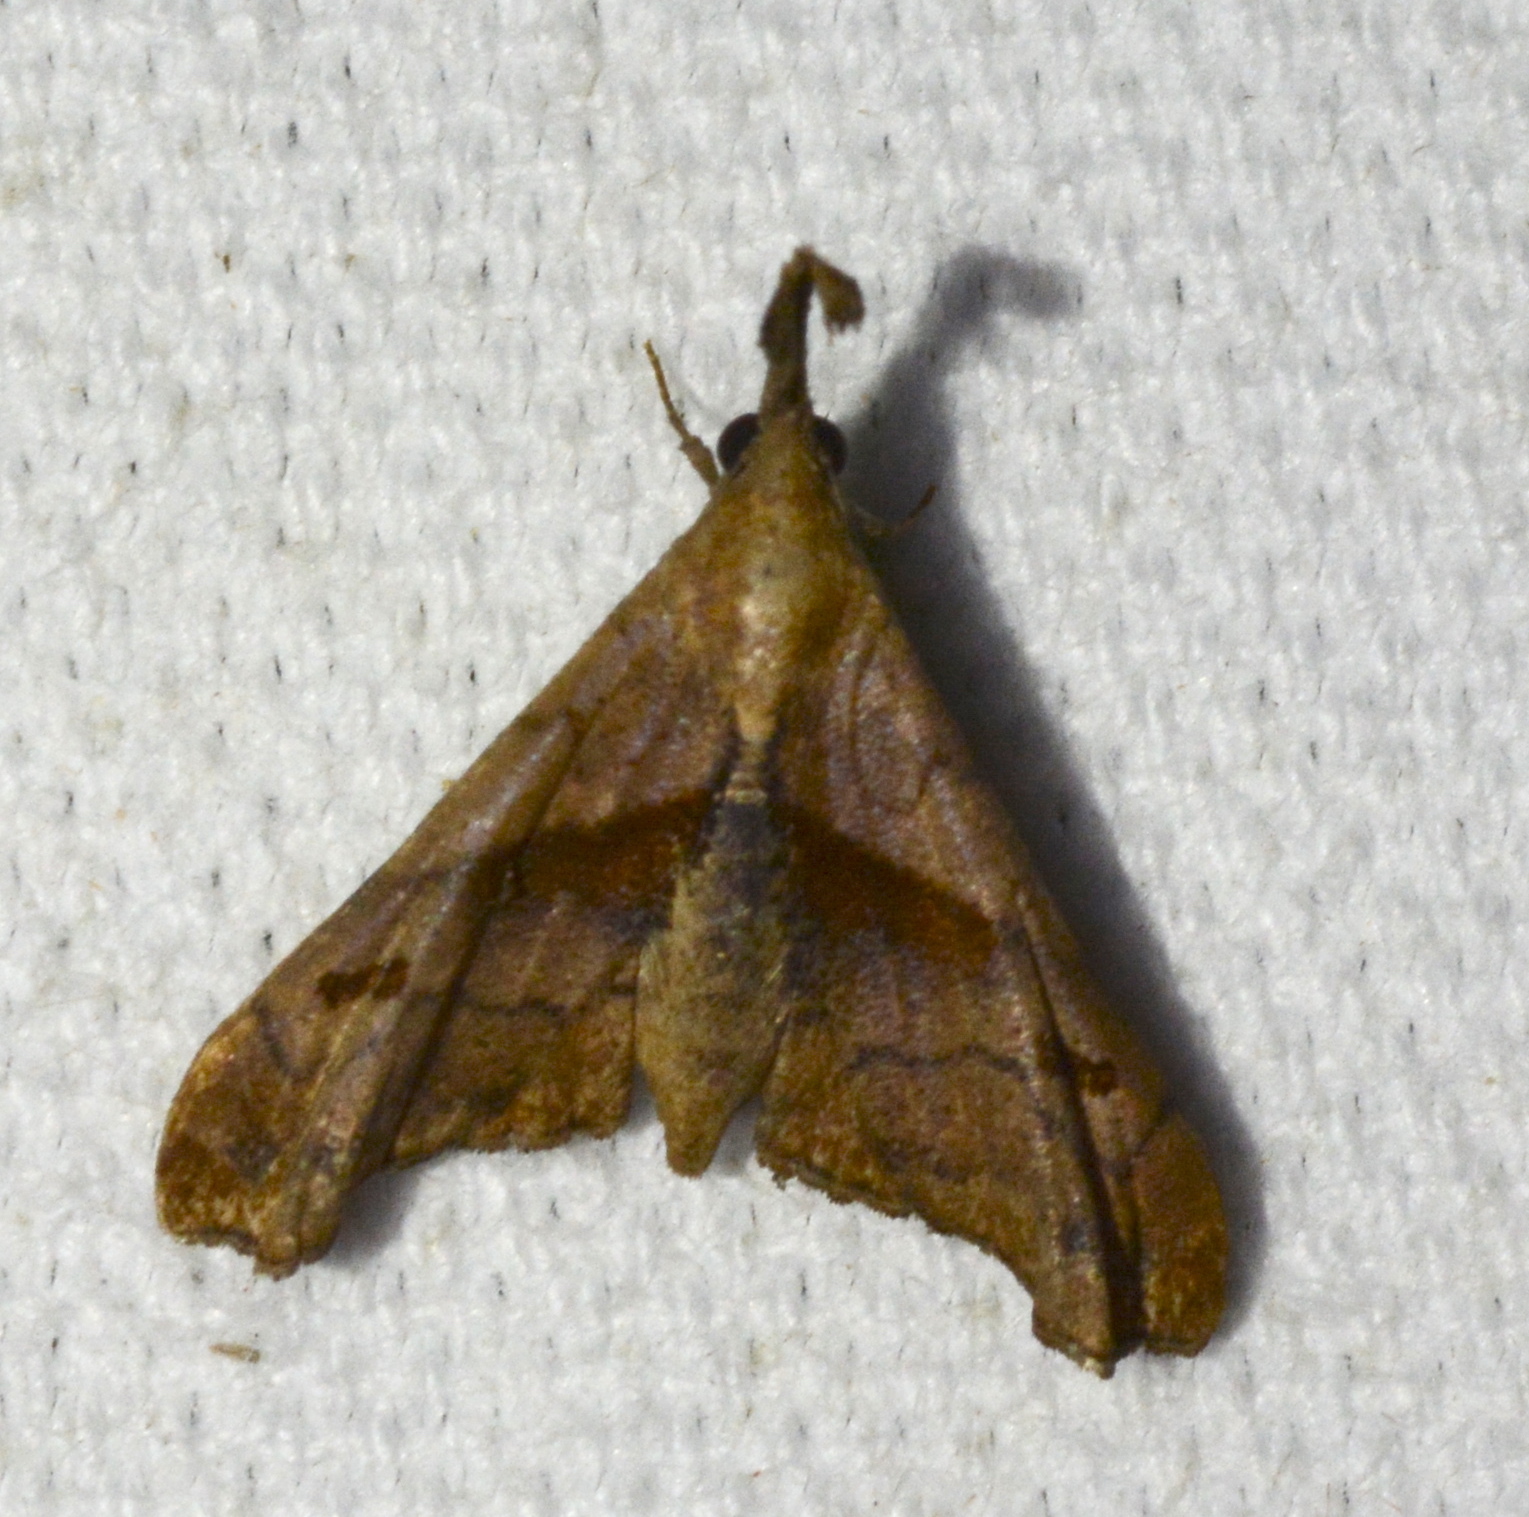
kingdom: Animalia
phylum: Arthropoda
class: Insecta
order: Lepidoptera
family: Erebidae
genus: Palthis
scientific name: Palthis angulalis
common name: Dark-spotted palthis moth
